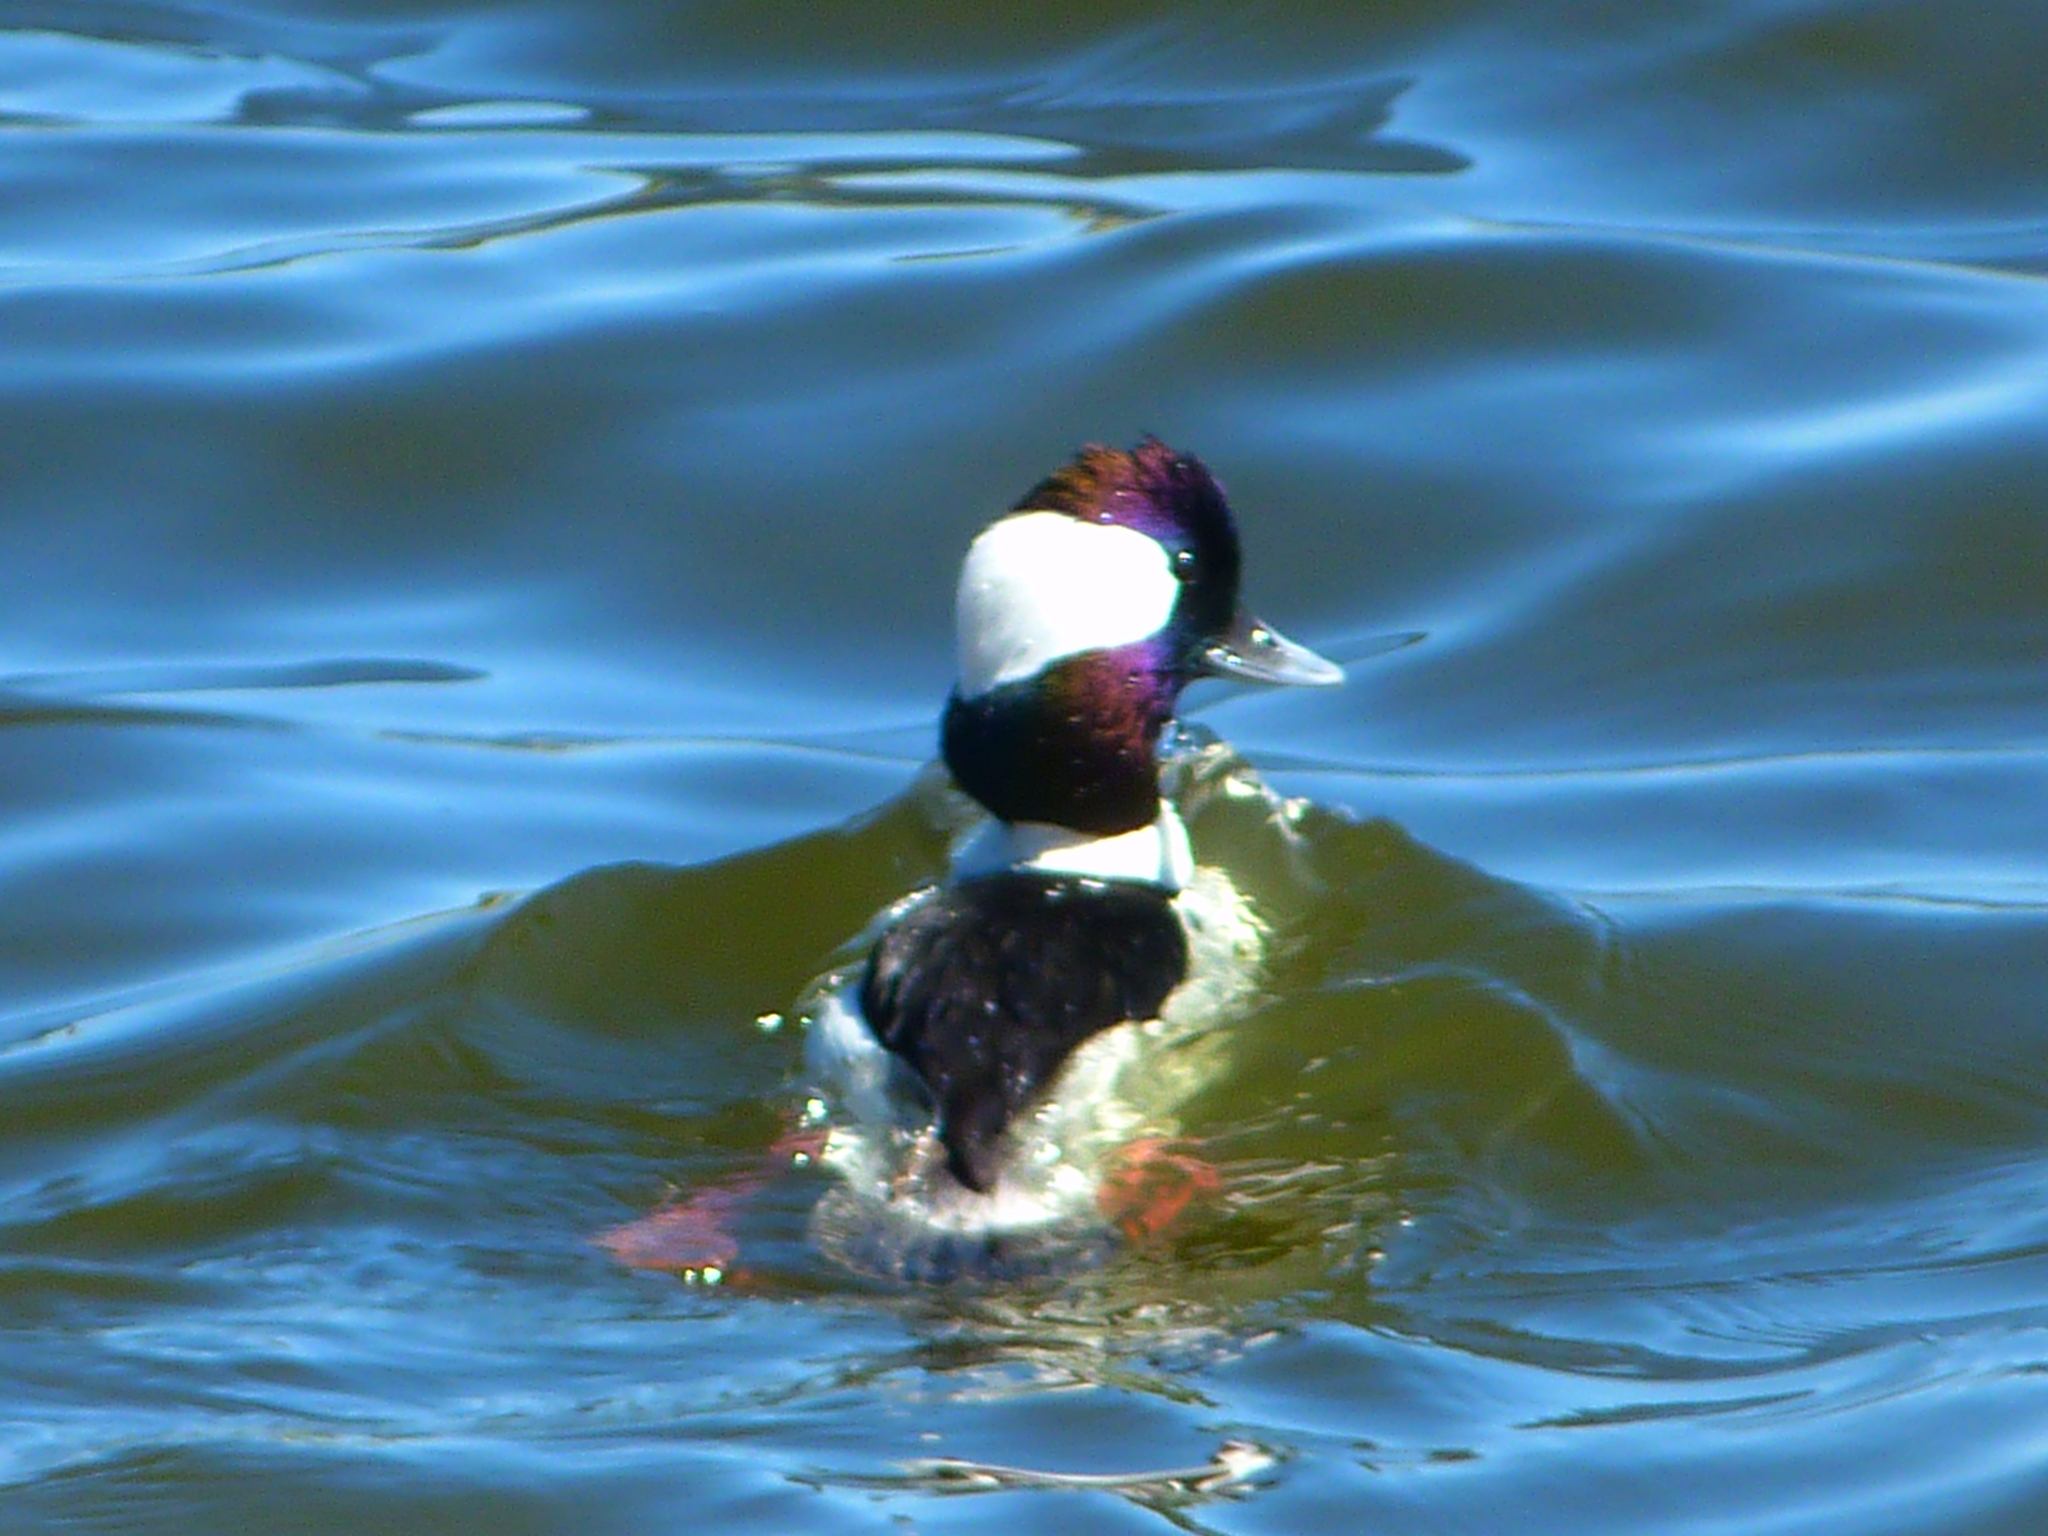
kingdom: Animalia
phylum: Chordata
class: Aves
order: Anseriformes
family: Anatidae
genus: Bucephala
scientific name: Bucephala albeola
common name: Bufflehead
